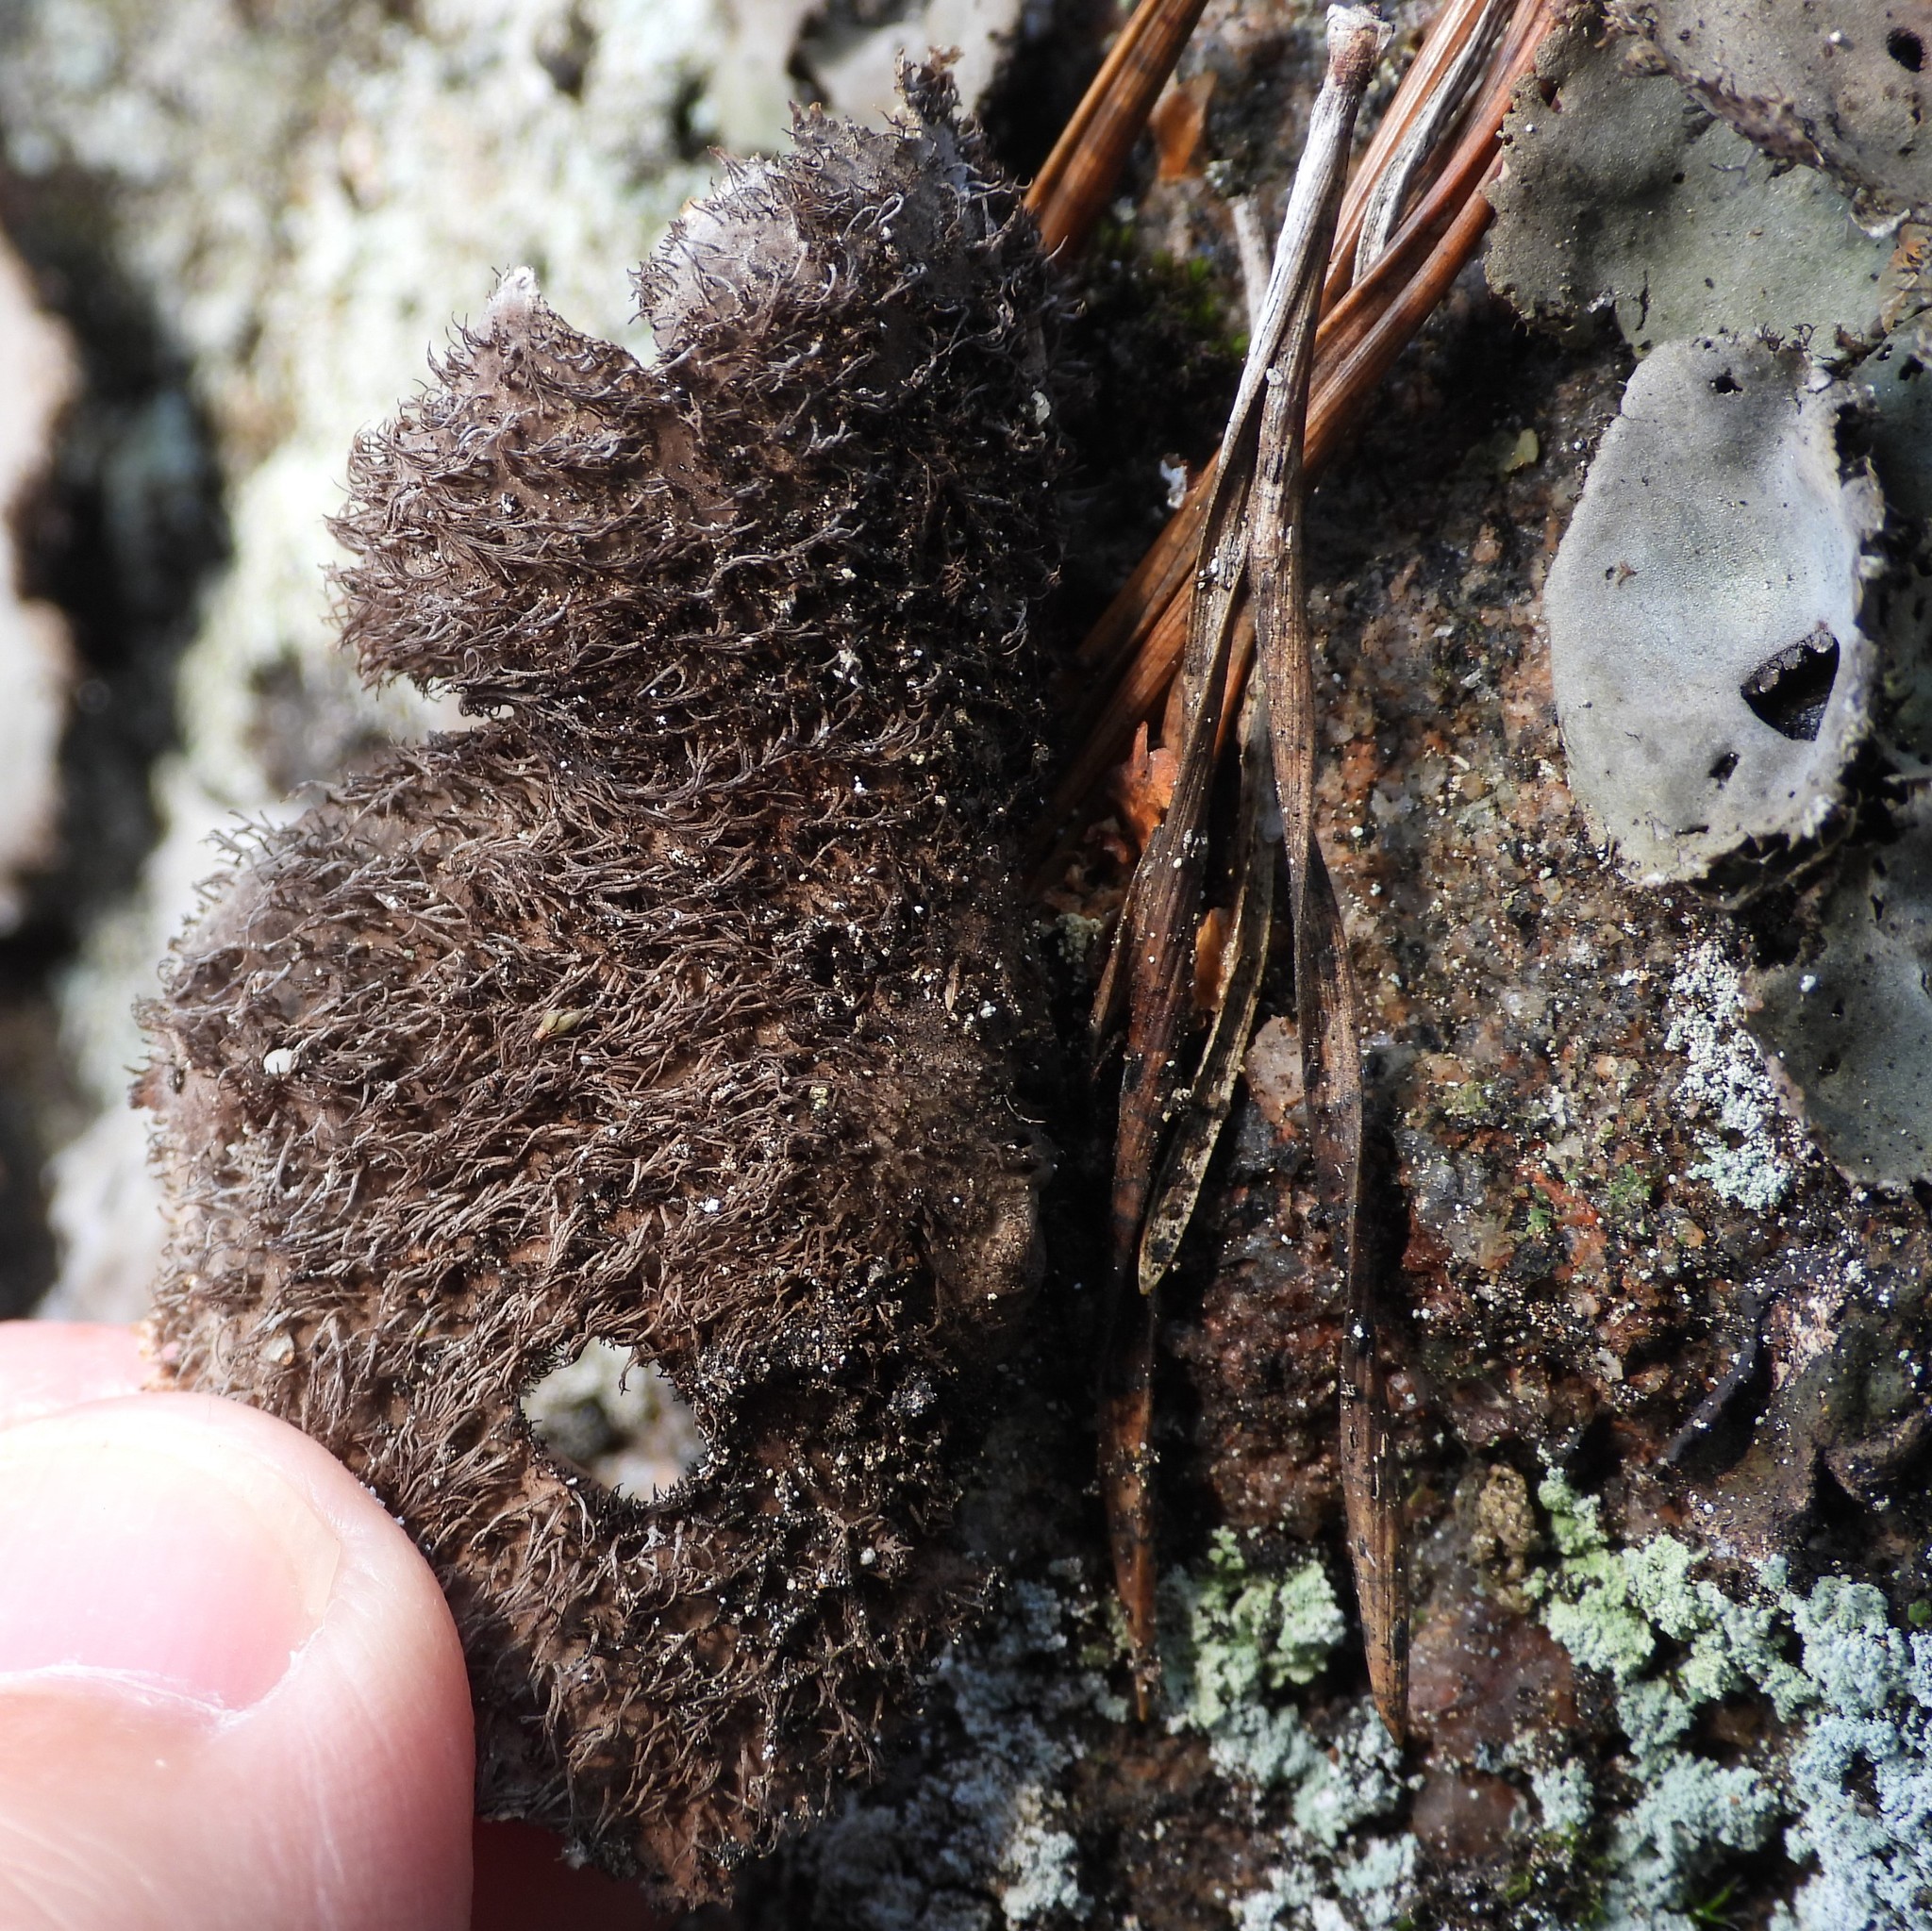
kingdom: Fungi
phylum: Ascomycota
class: Lecanoromycetes
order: Umbilicariales
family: Umbilicariaceae
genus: Umbilicaria
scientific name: Umbilicaria hirsuta
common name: Granulating rocktripe lichen
